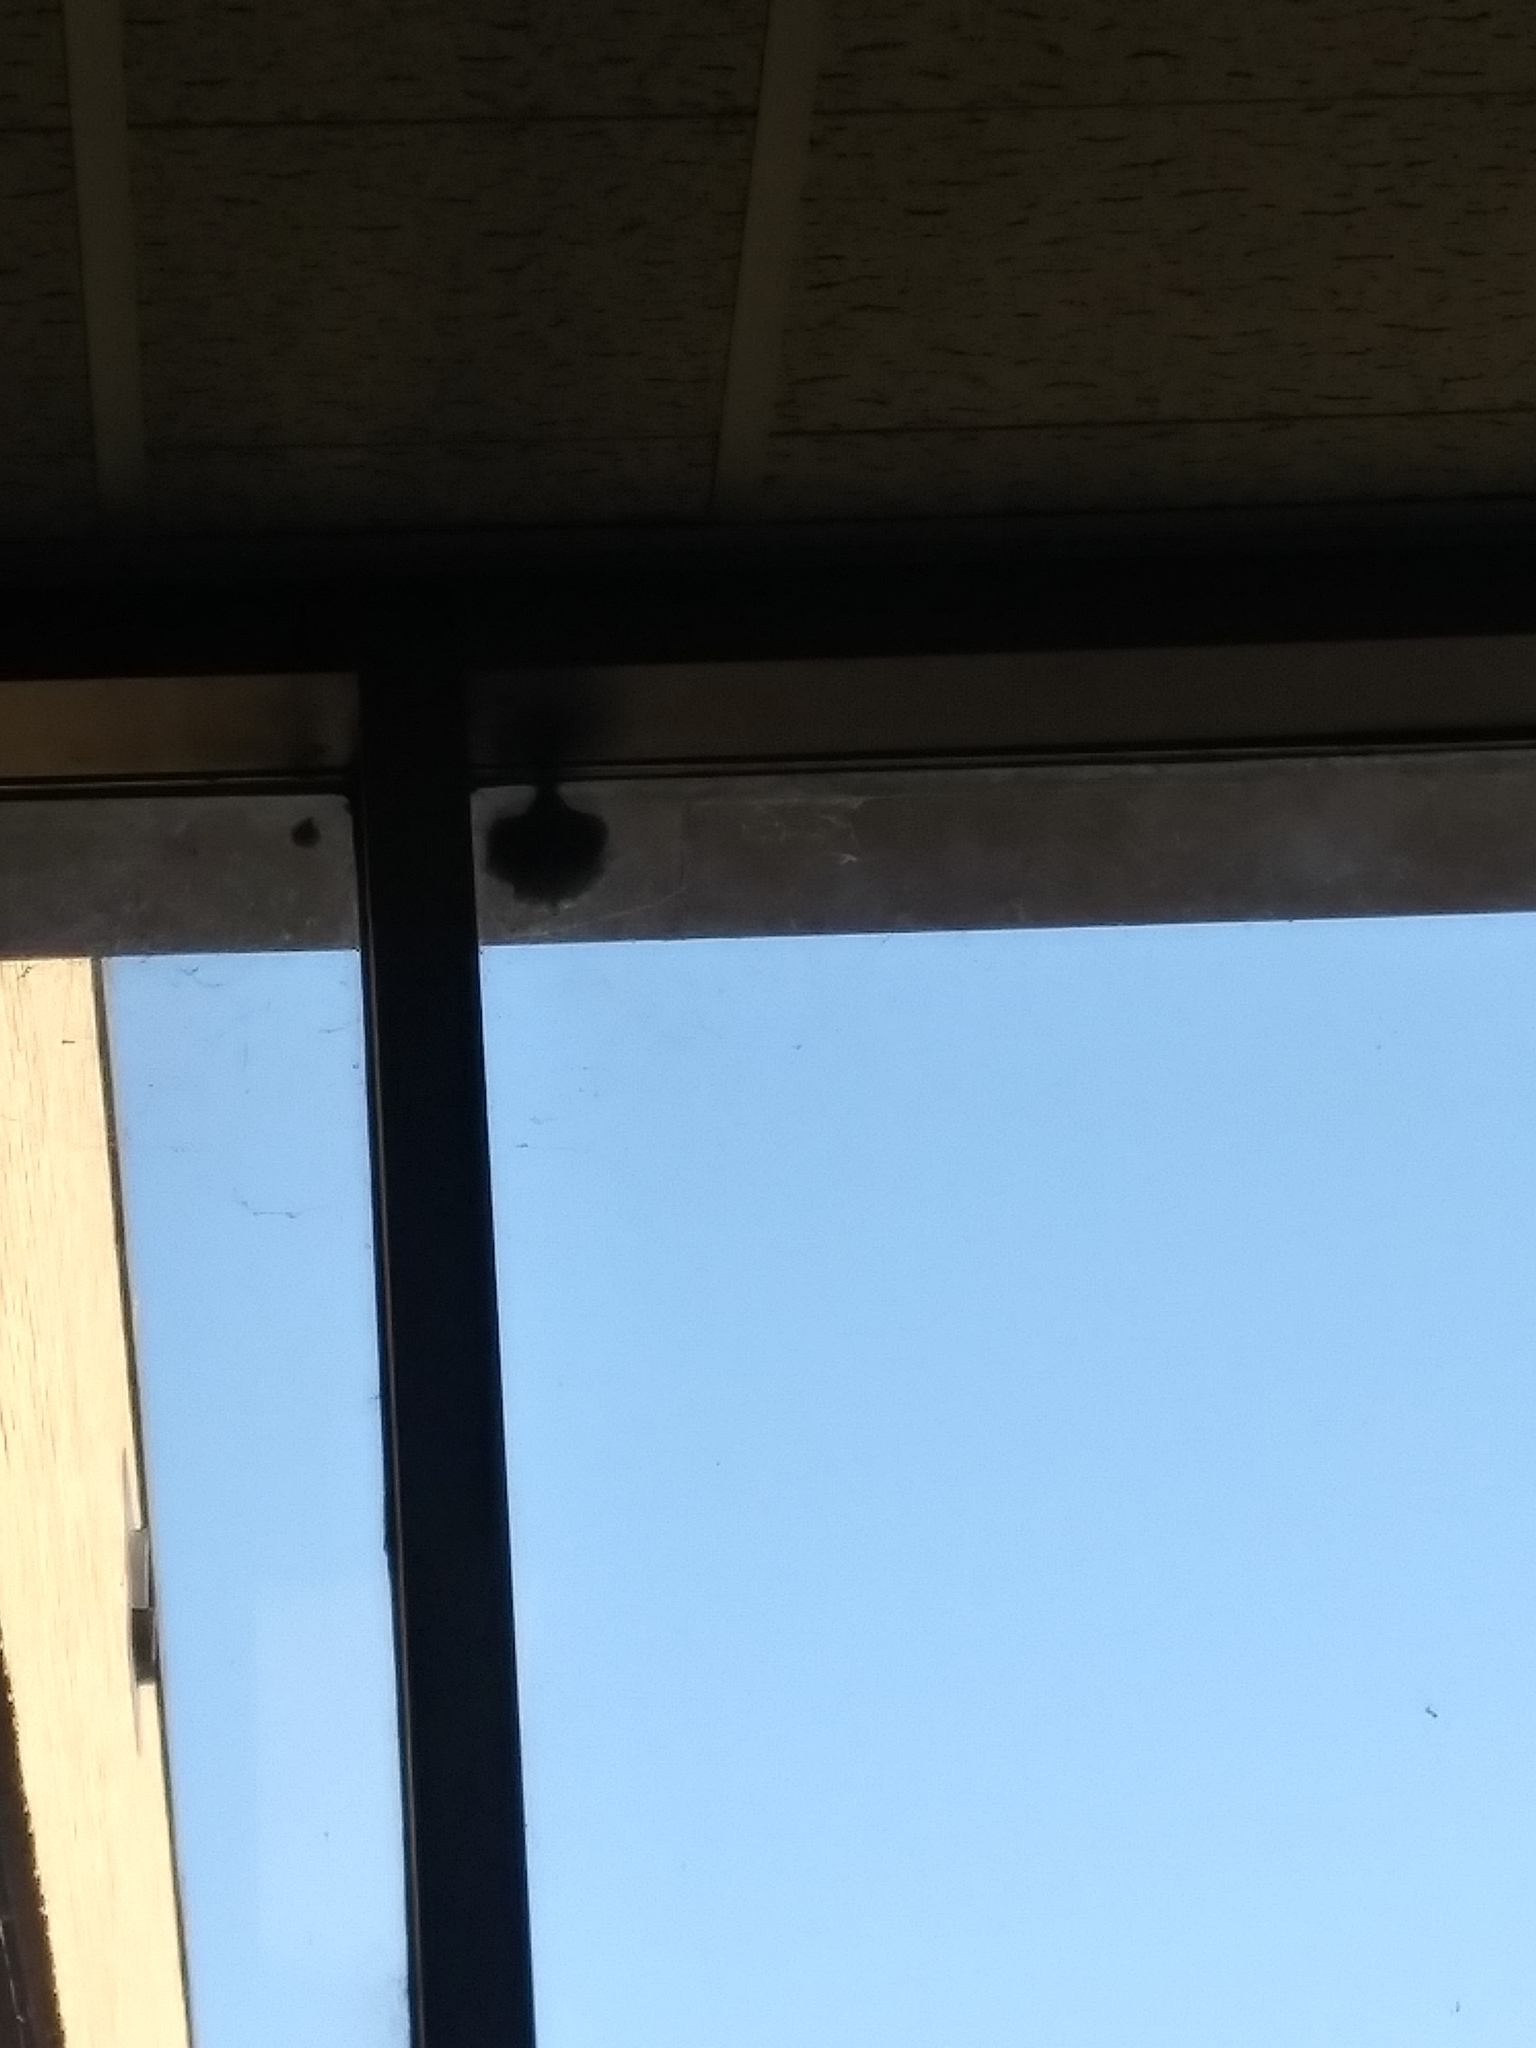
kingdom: Animalia
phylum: Arthropoda
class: Insecta
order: Hymenoptera
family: Vespidae
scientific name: Vespidae
